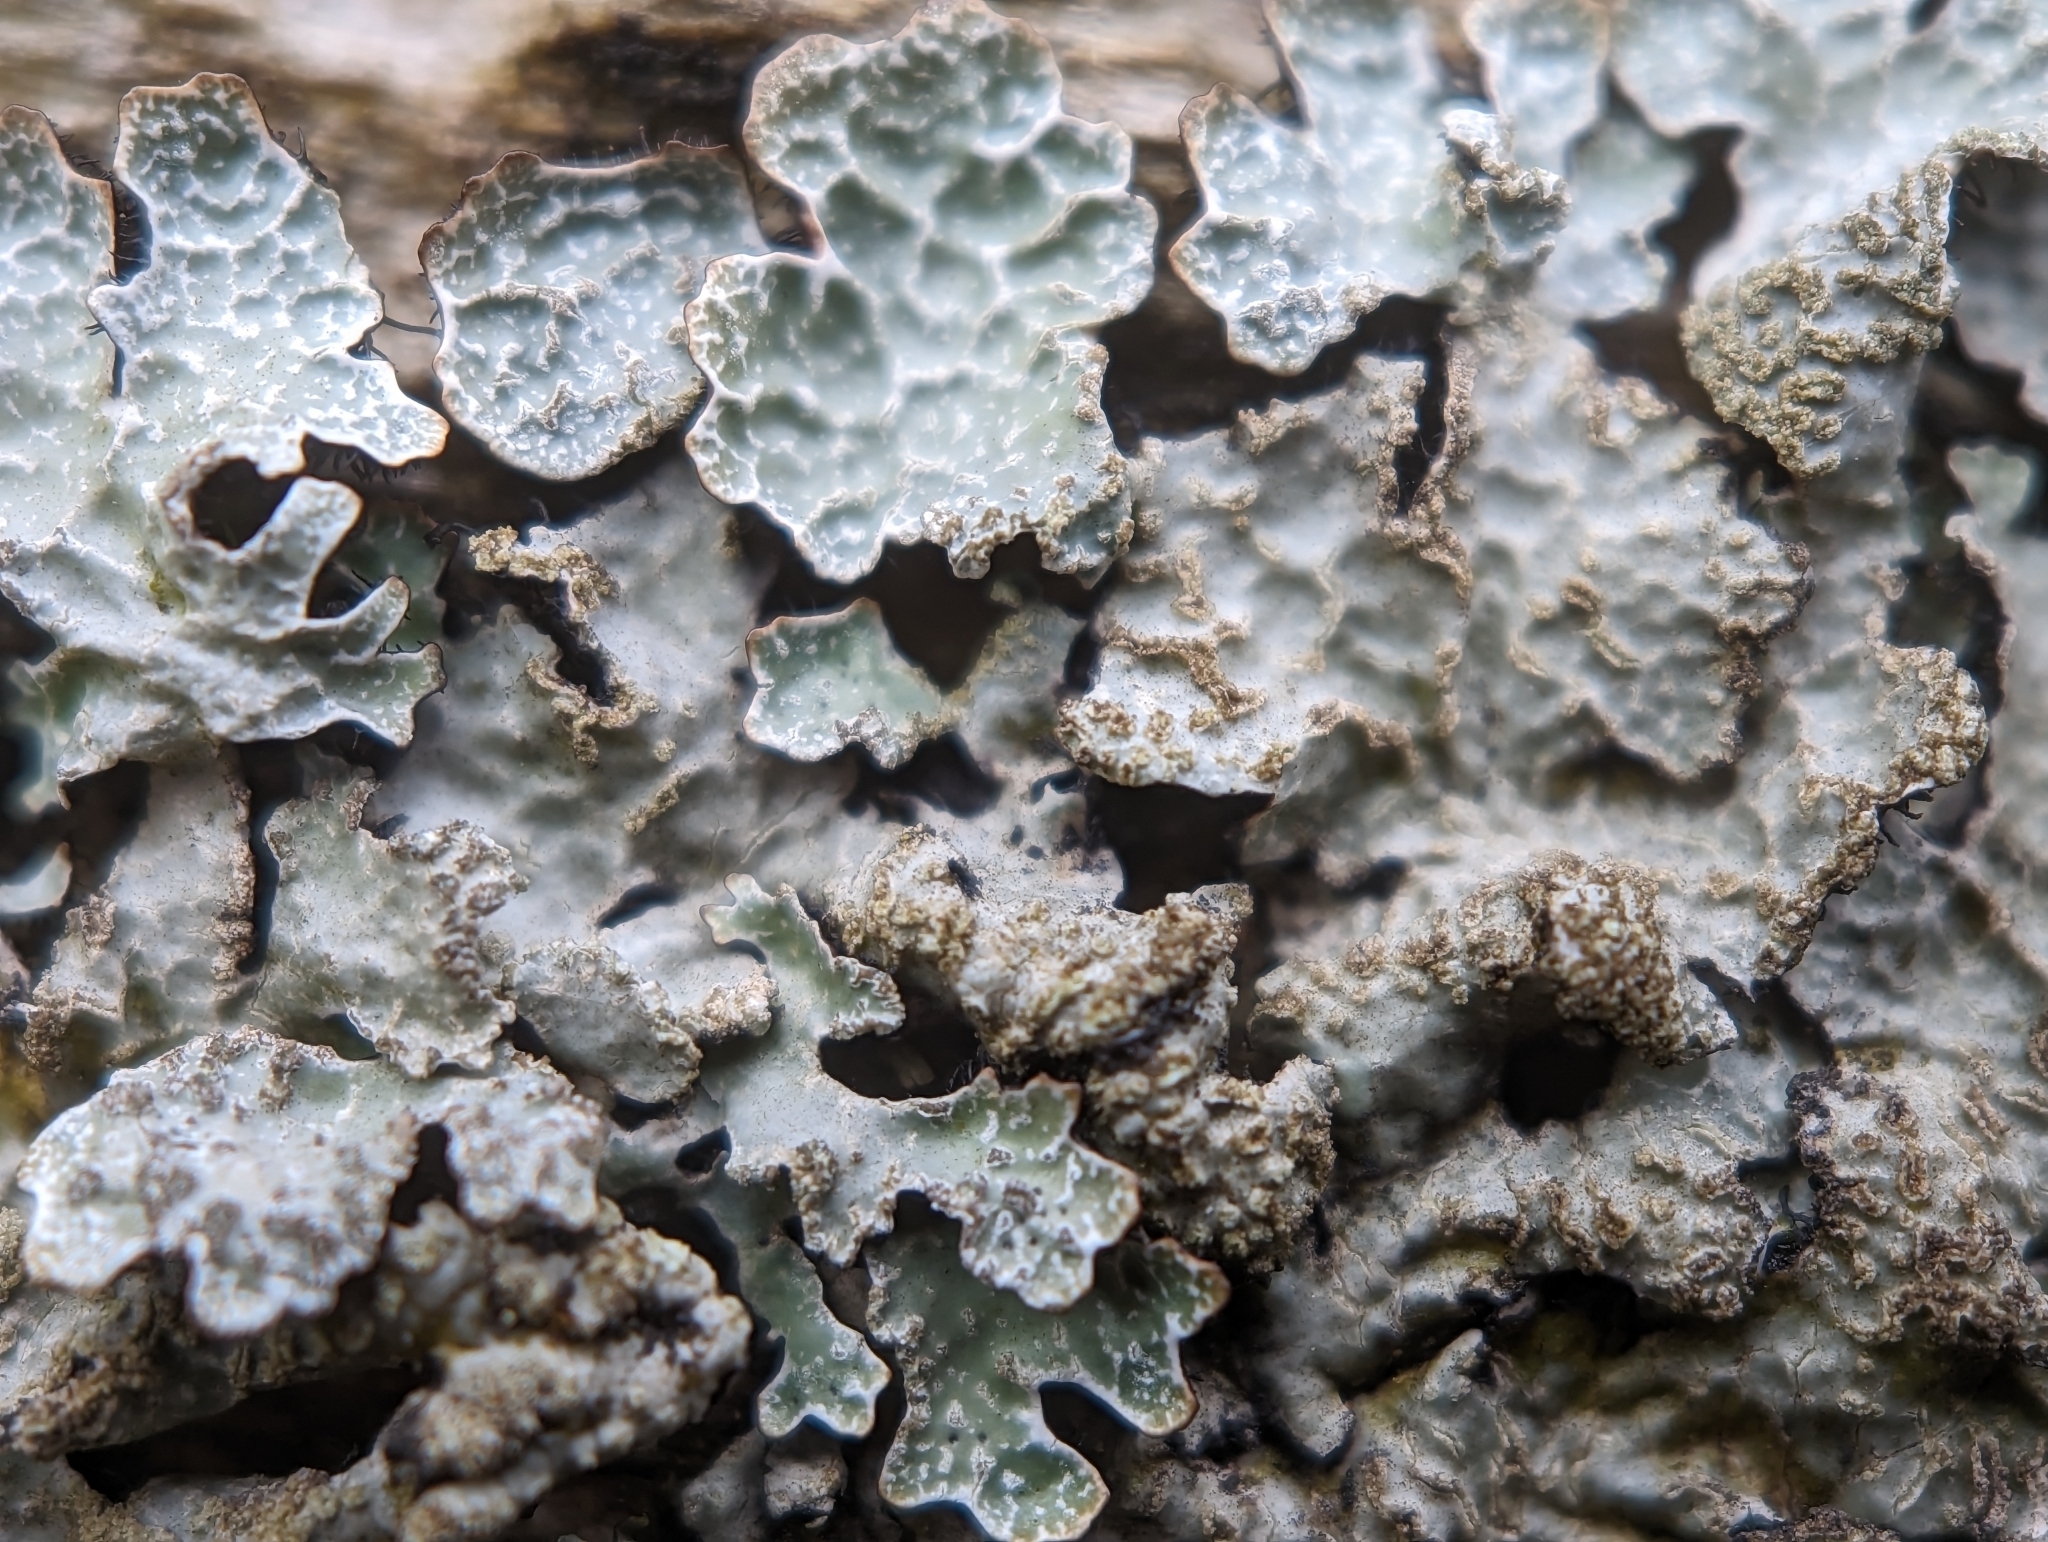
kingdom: Fungi
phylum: Ascomycota
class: Lecanoromycetes
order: Lecanorales
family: Parmeliaceae
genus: Parmelia
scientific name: Parmelia sulcata
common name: Netted shield lichen
